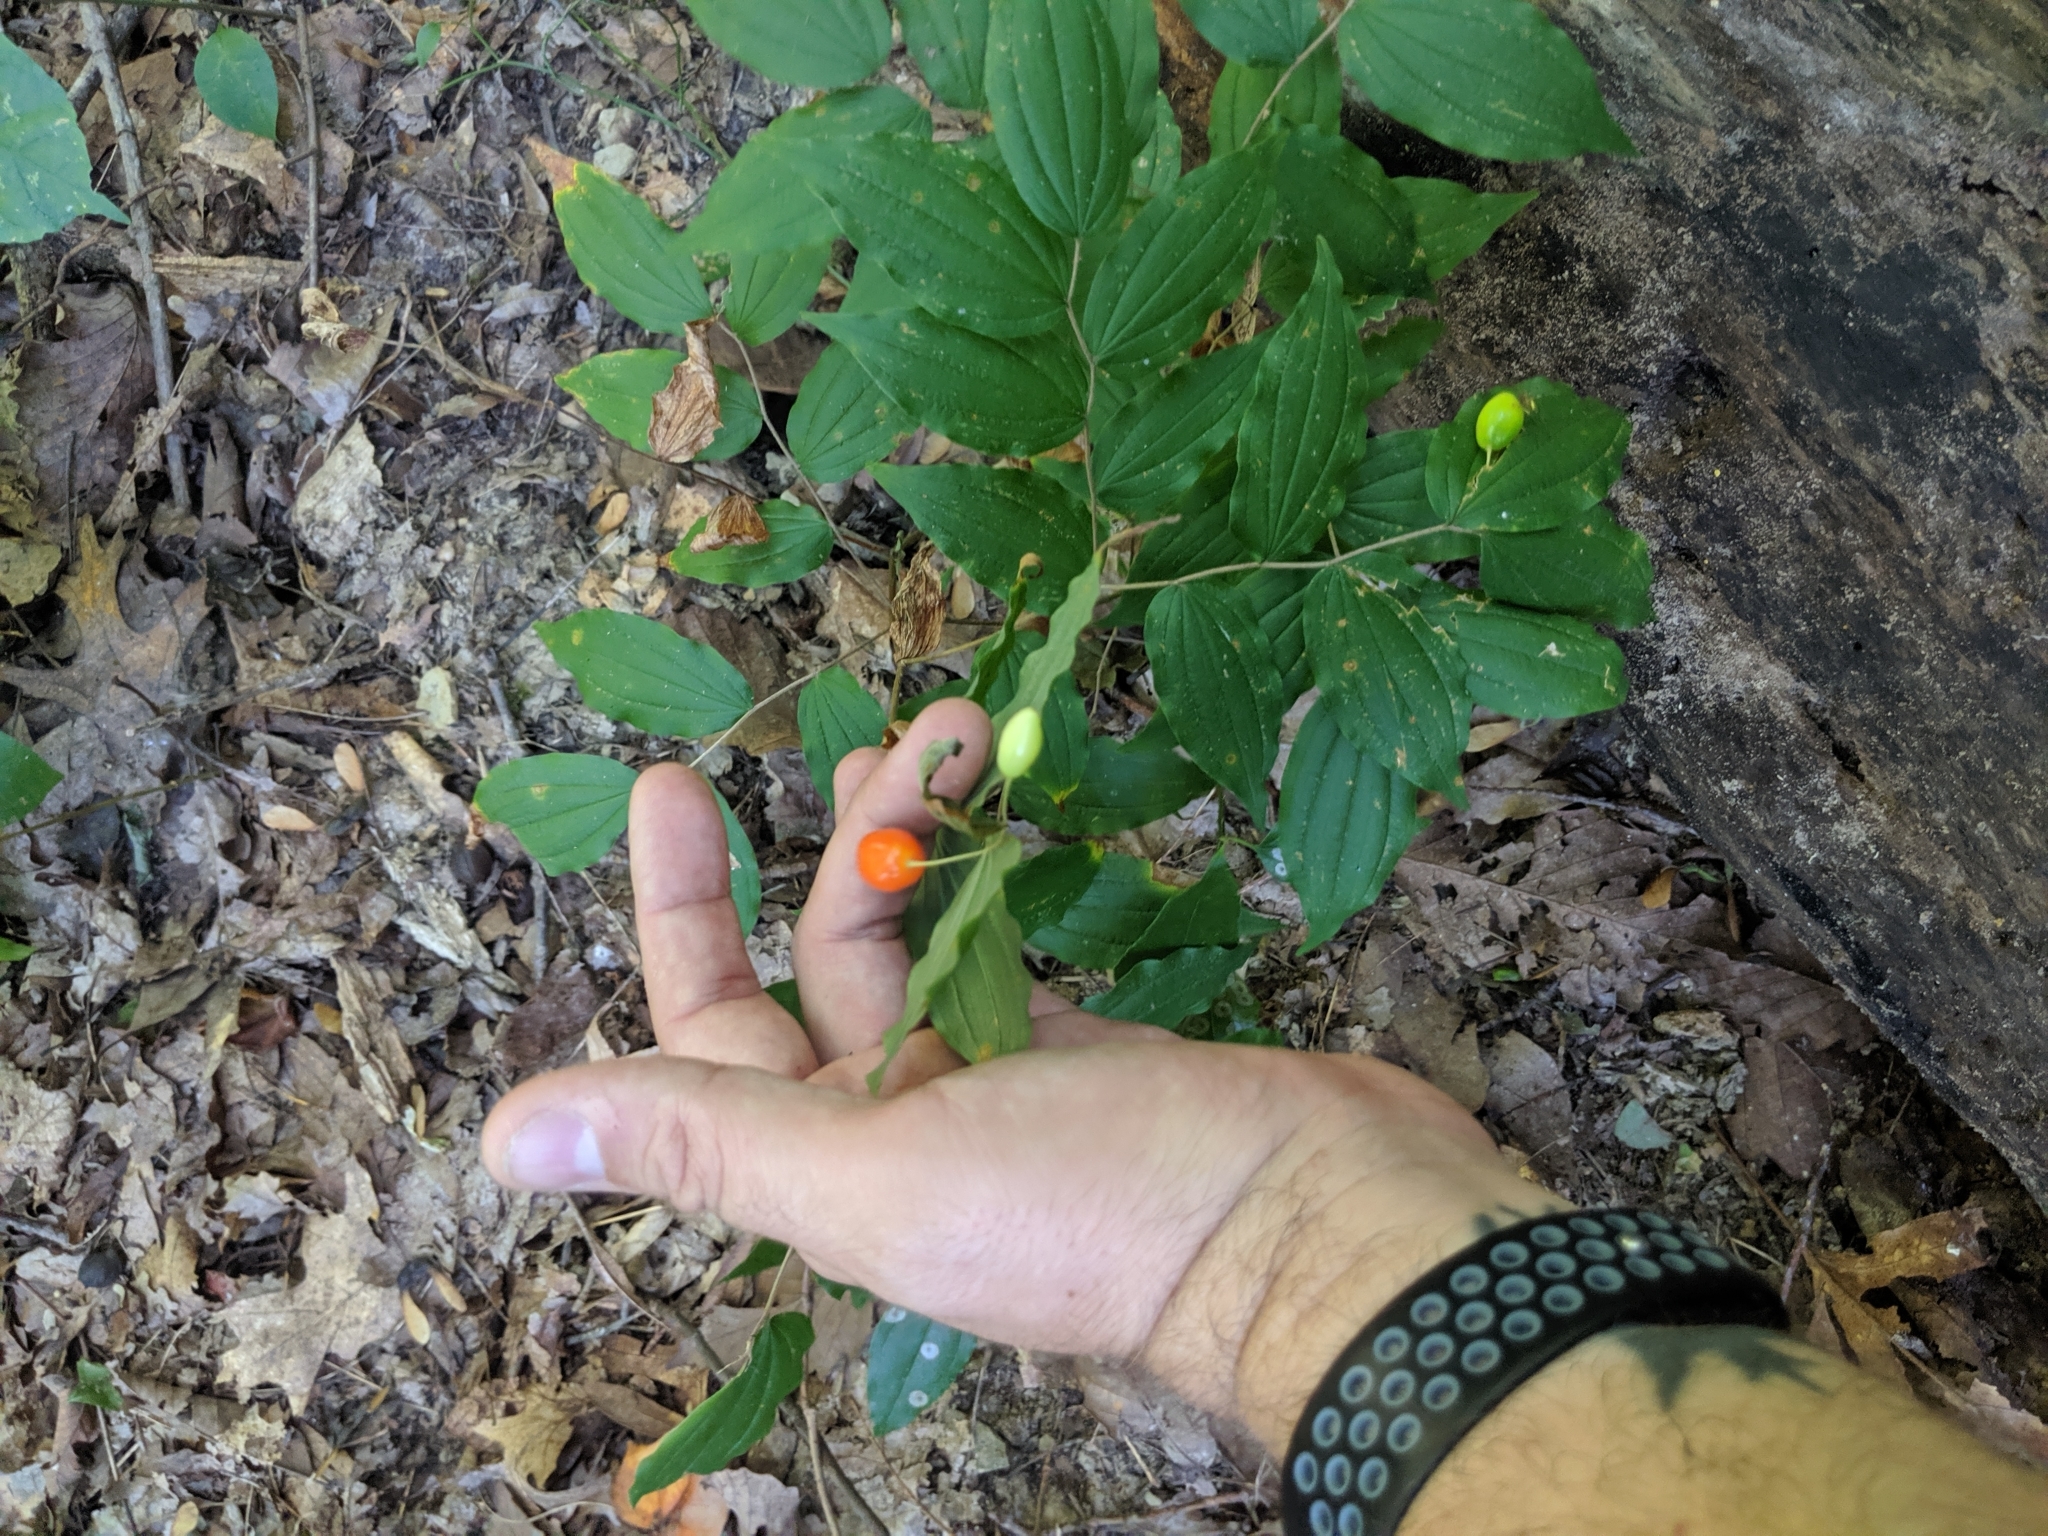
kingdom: Plantae
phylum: Tracheophyta
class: Liliopsida
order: Liliales
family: Liliaceae
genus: Prosartes
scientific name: Prosartes lanuginosa
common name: Hairy mandarin
